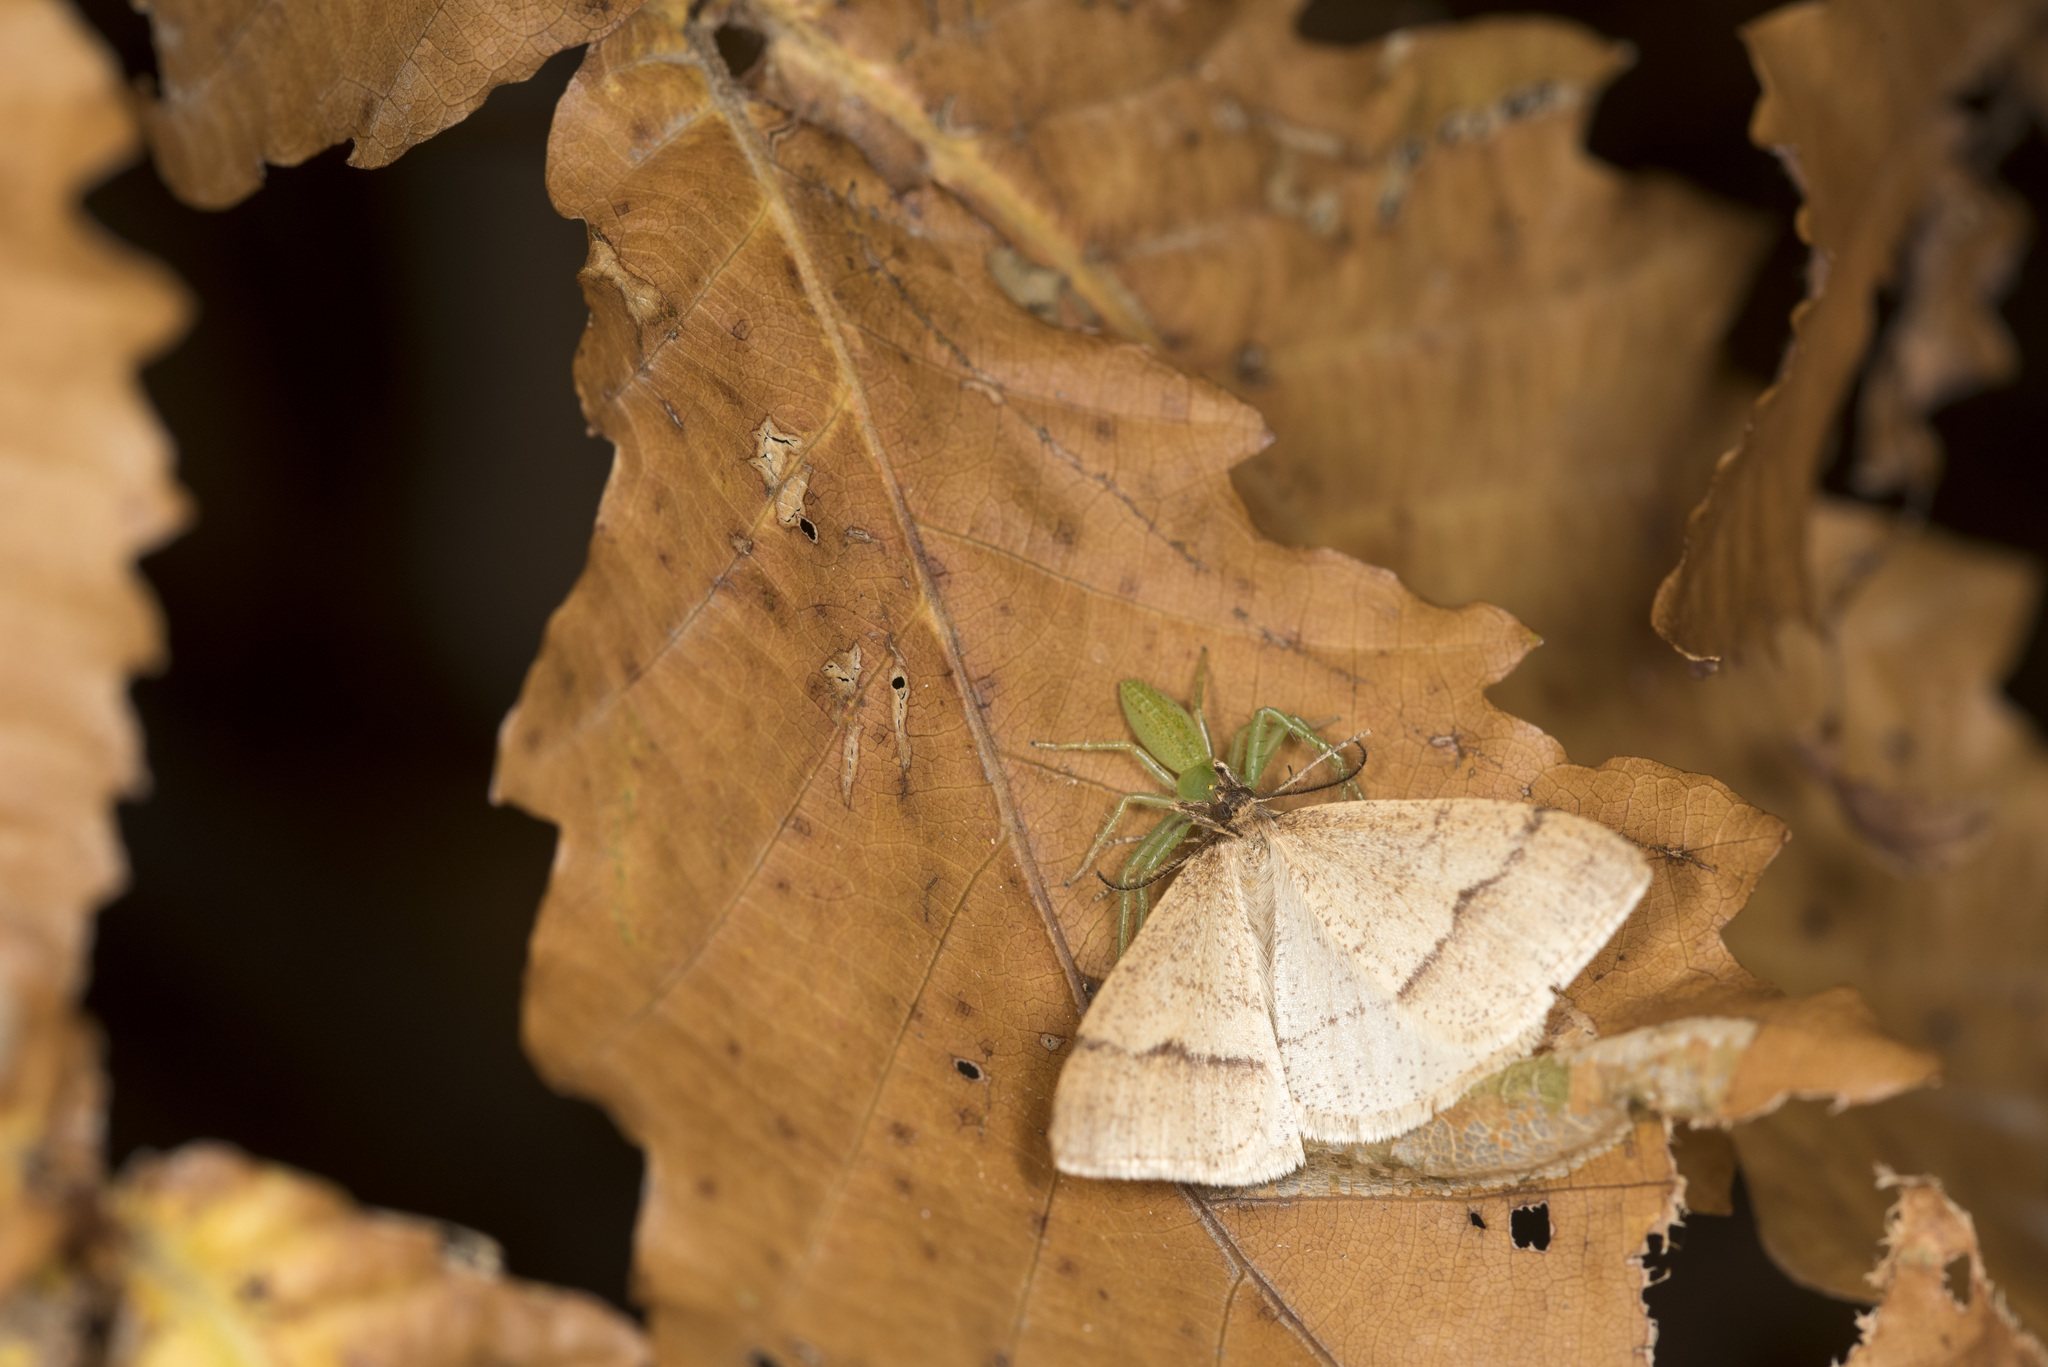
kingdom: Animalia
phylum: Arthropoda
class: Insecta
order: Lepidoptera
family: Geometridae
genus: Pachyerannis
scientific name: Pachyerannis obliquaria
